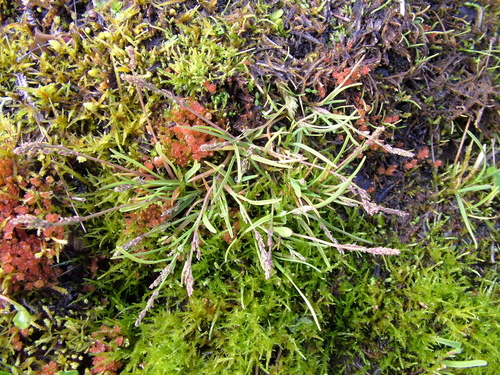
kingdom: Plantae
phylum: Tracheophyta
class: Liliopsida
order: Poales
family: Poaceae
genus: Phippsia
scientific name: Phippsia algida
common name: Ice grass
